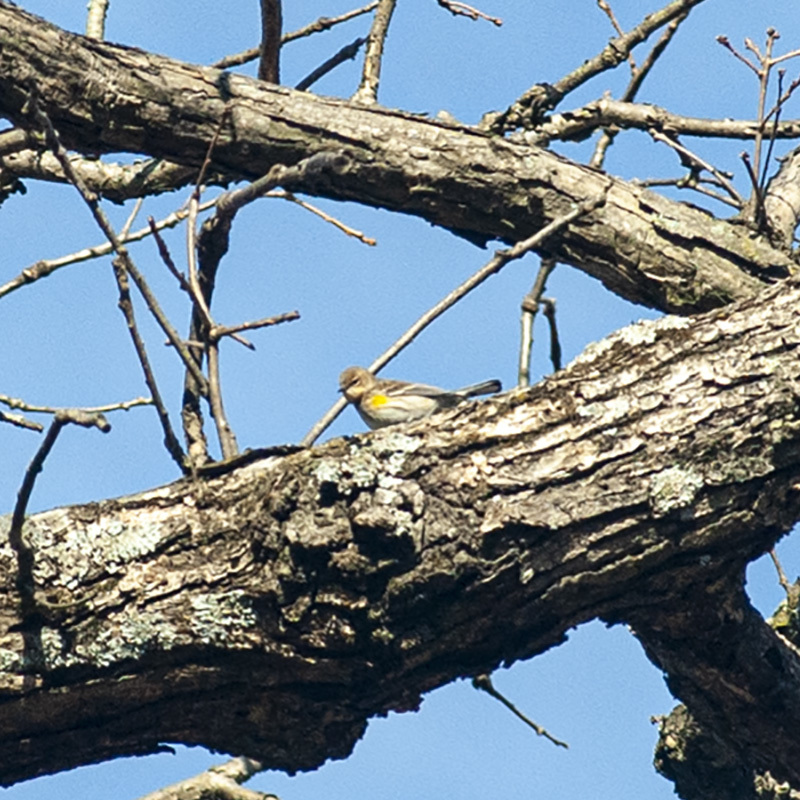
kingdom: Animalia
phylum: Chordata
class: Aves
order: Passeriformes
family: Parulidae
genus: Setophaga
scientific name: Setophaga coronata
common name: Myrtle warbler
